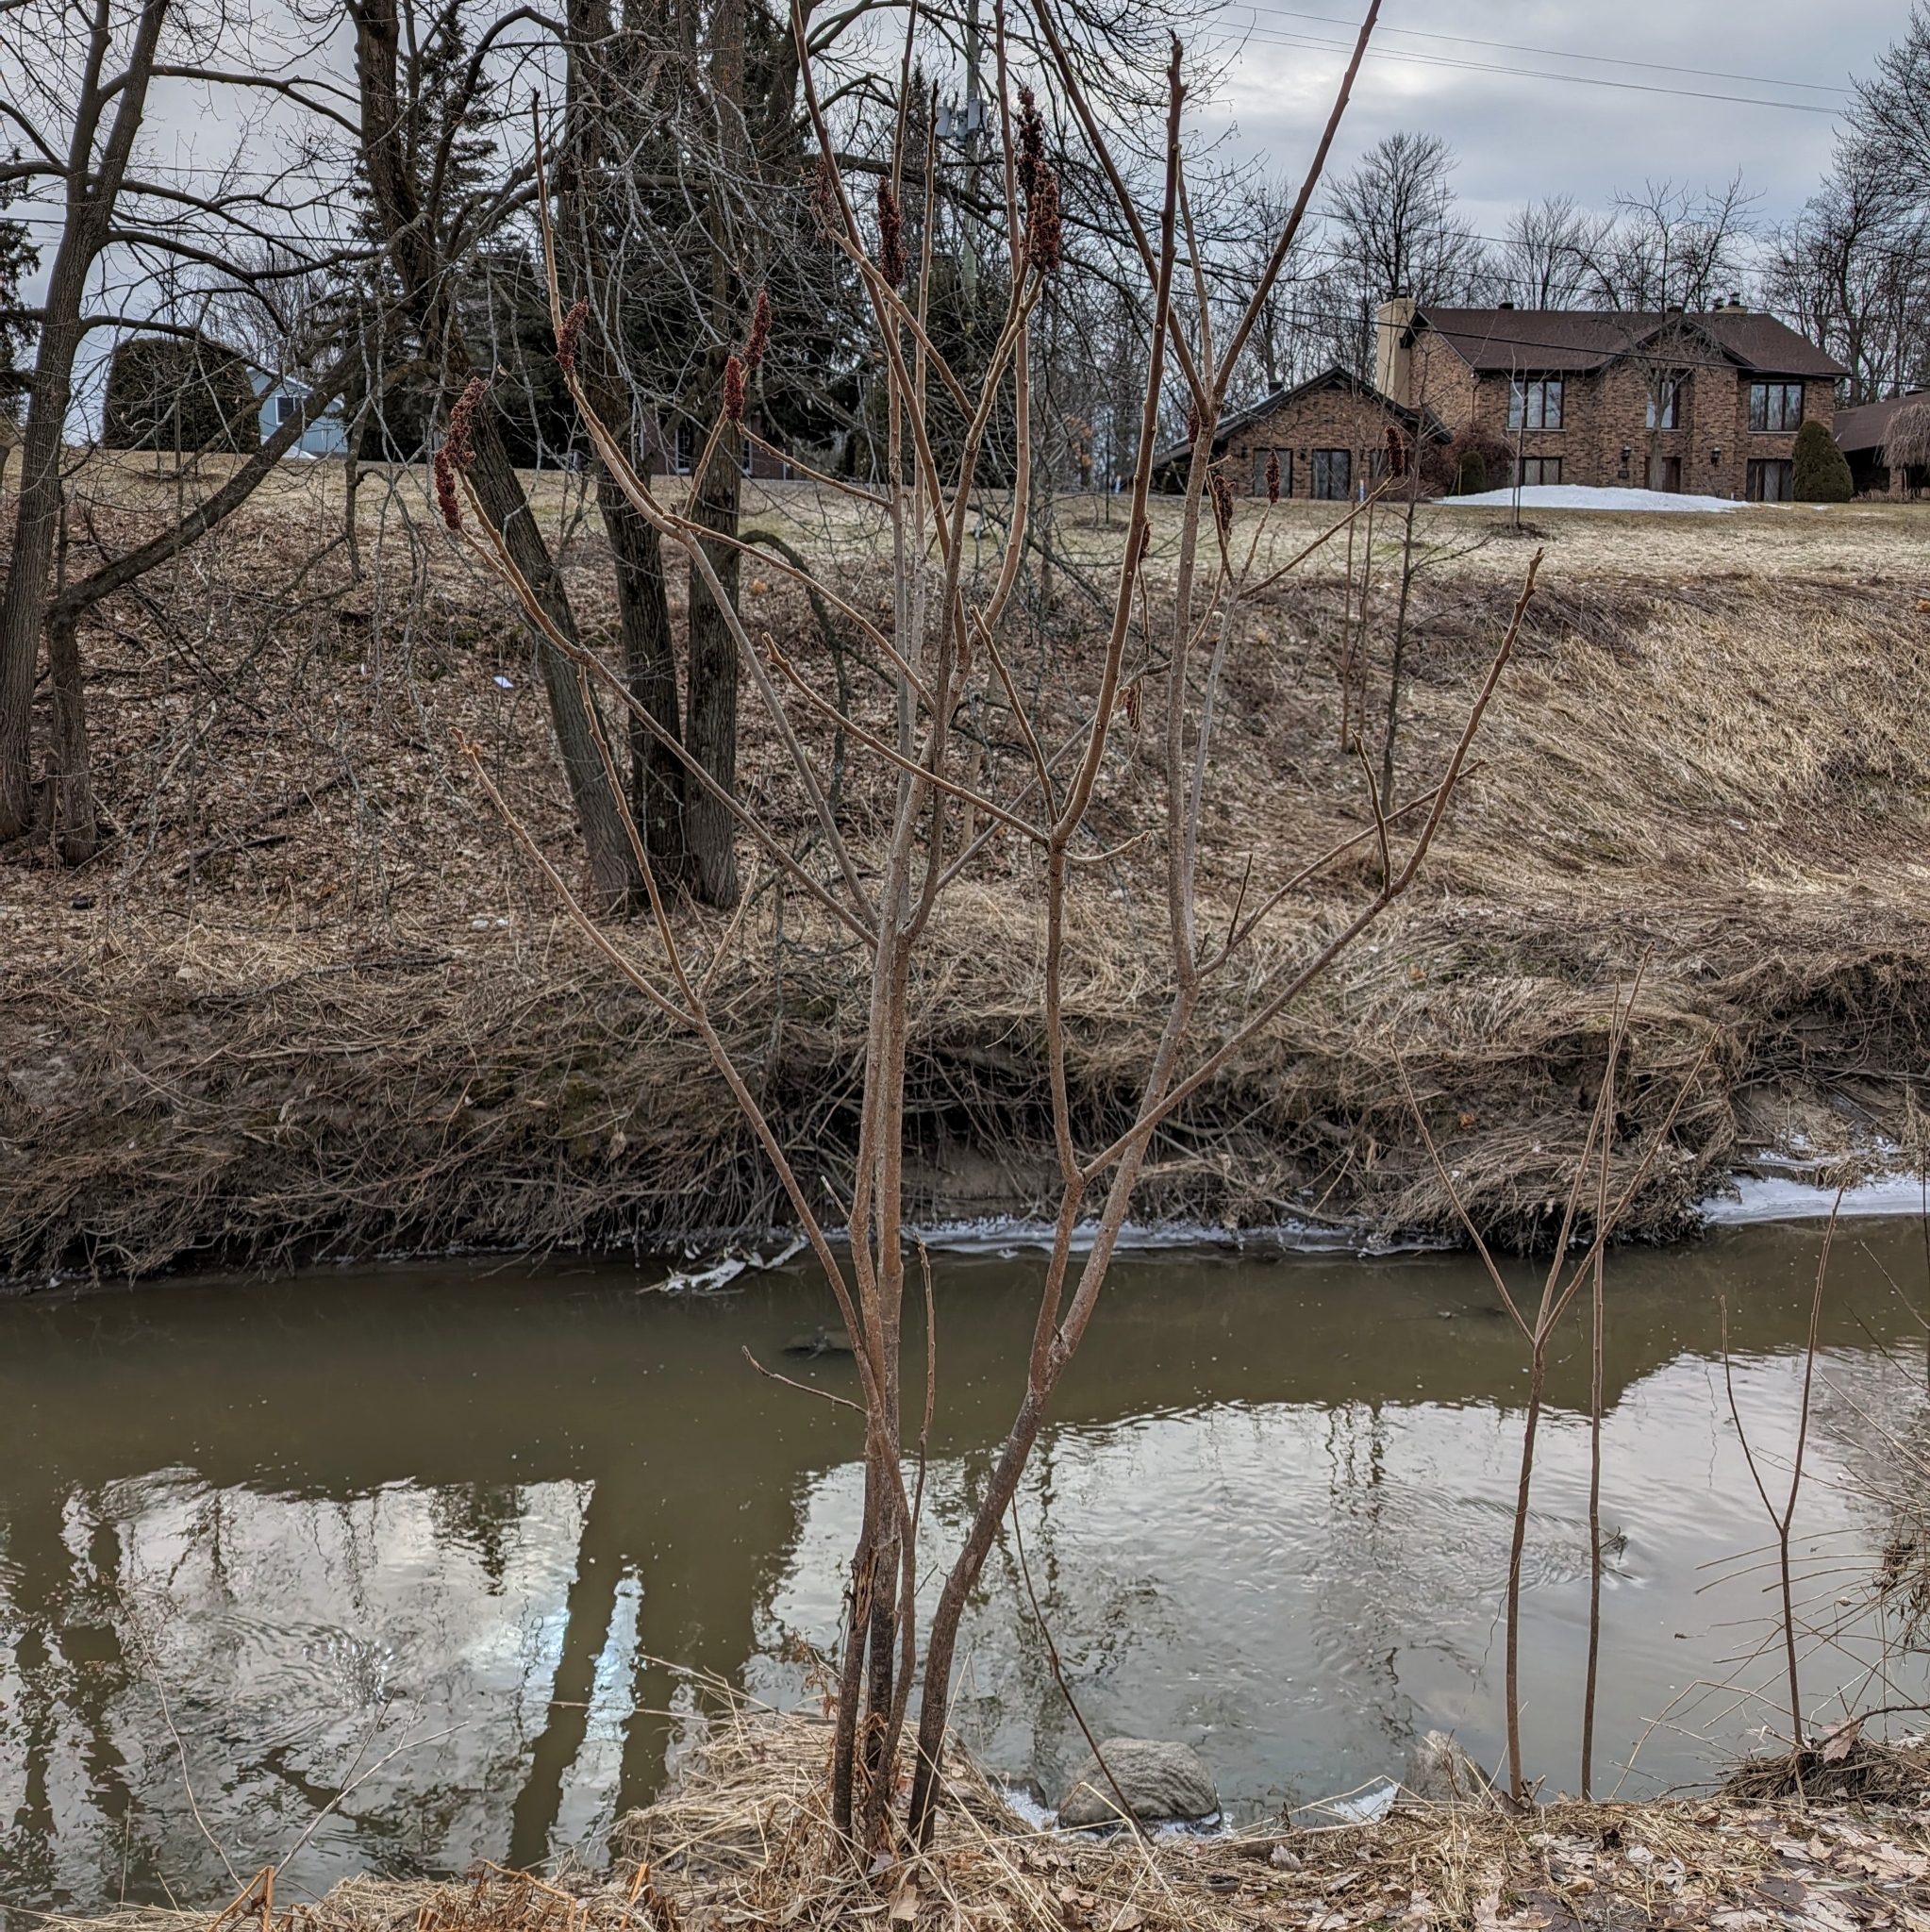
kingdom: Plantae
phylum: Tracheophyta
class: Magnoliopsida
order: Sapindales
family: Anacardiaceae
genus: Rhus
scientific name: Rhus typhina
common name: Staghorn sumac
